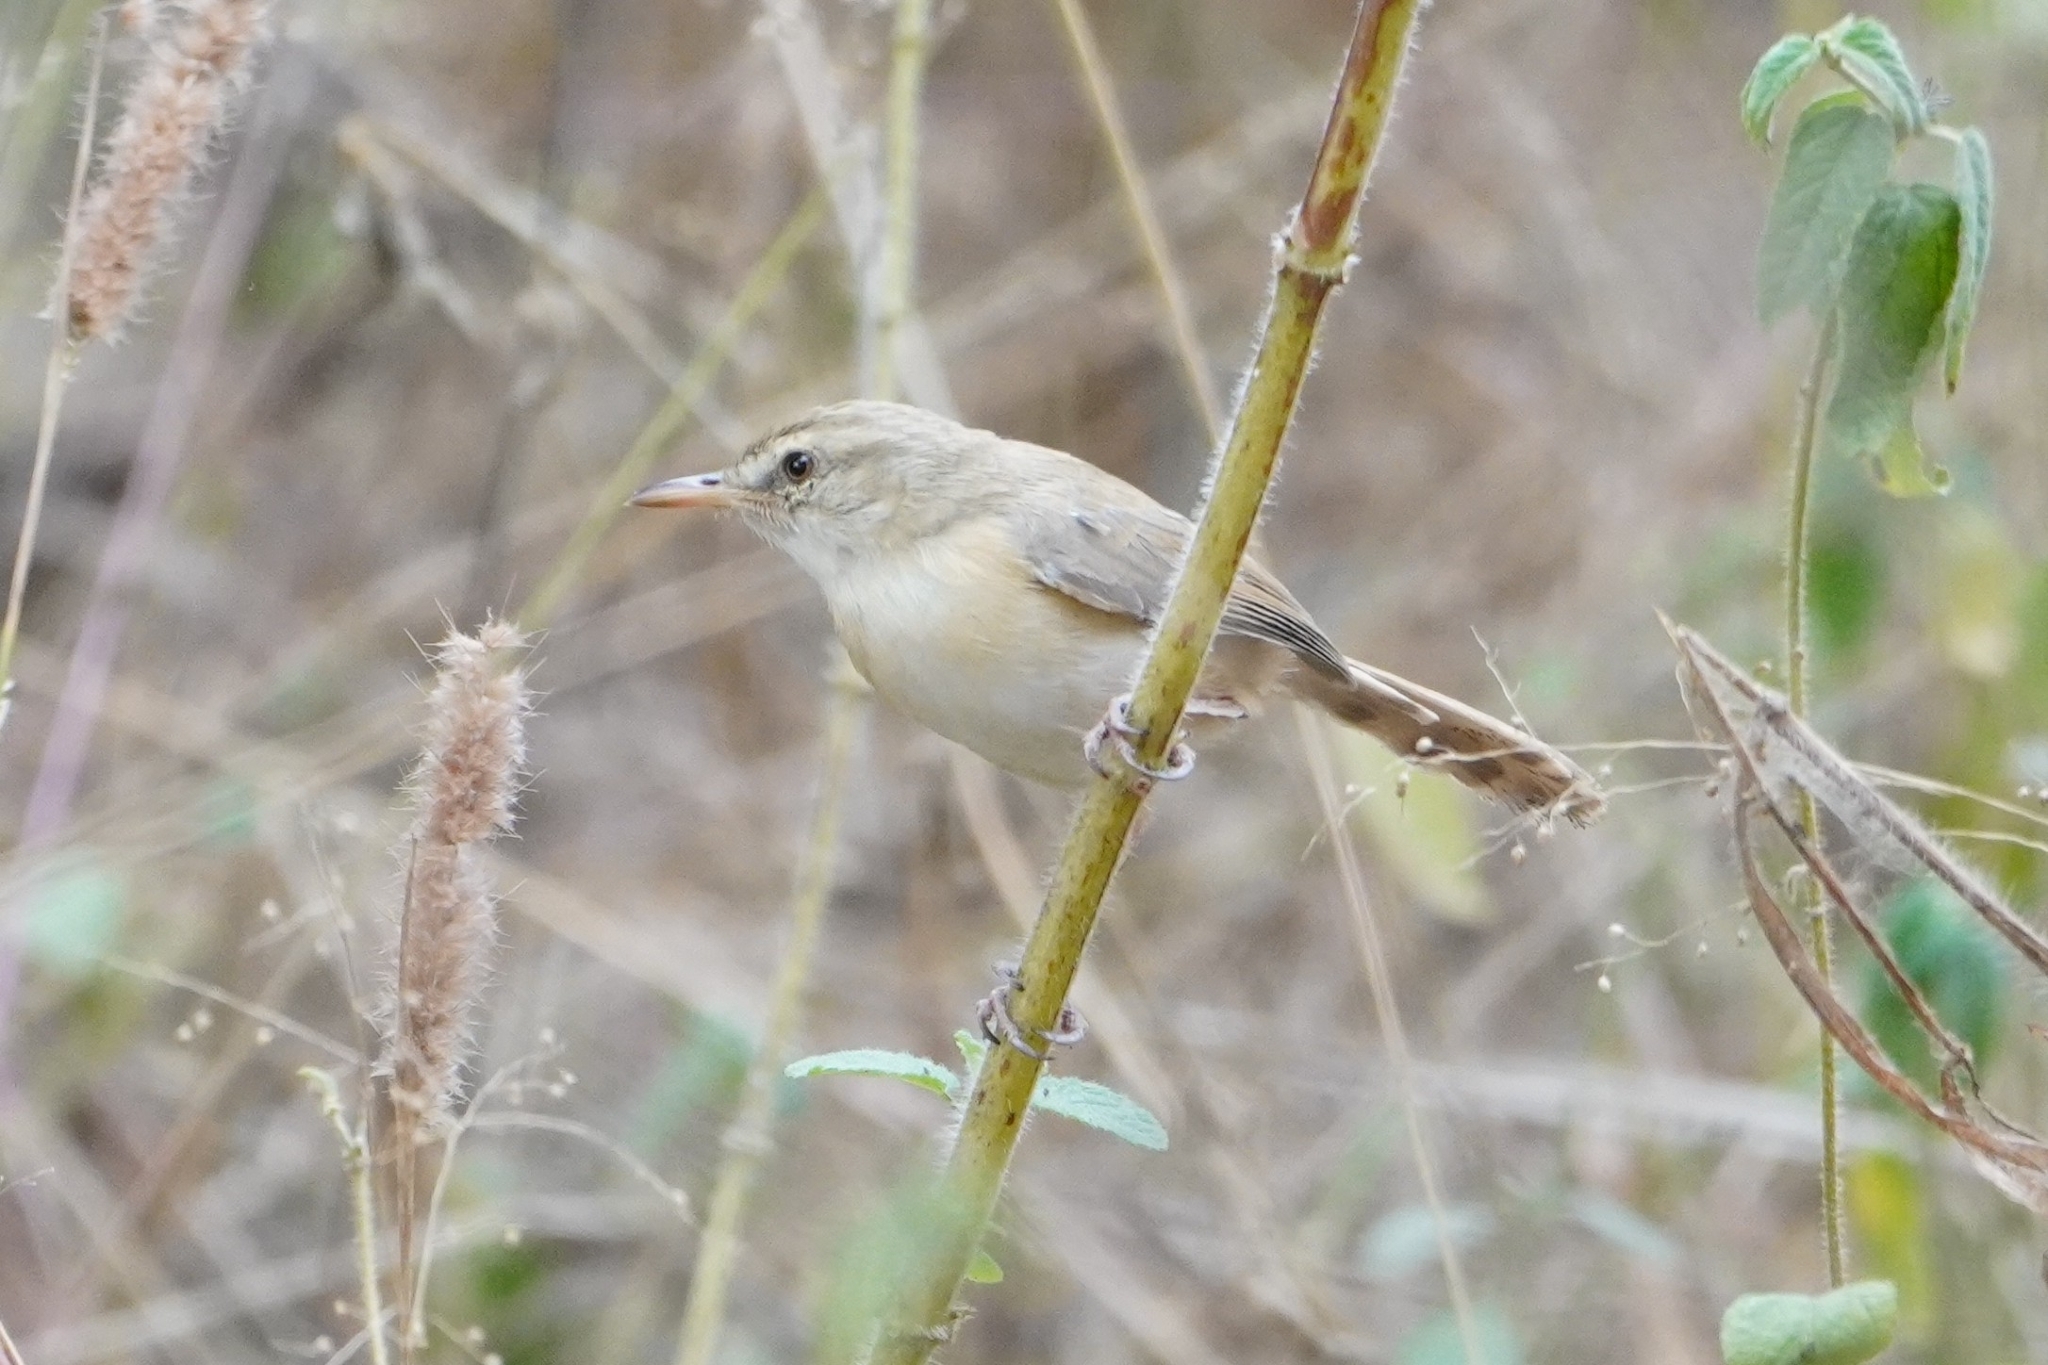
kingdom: Animalia
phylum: Chordata
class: Aves
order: Passeriformes
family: Cisticolidae
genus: Prinia
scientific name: Prinia subflava
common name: Tawny-flanked prinia
